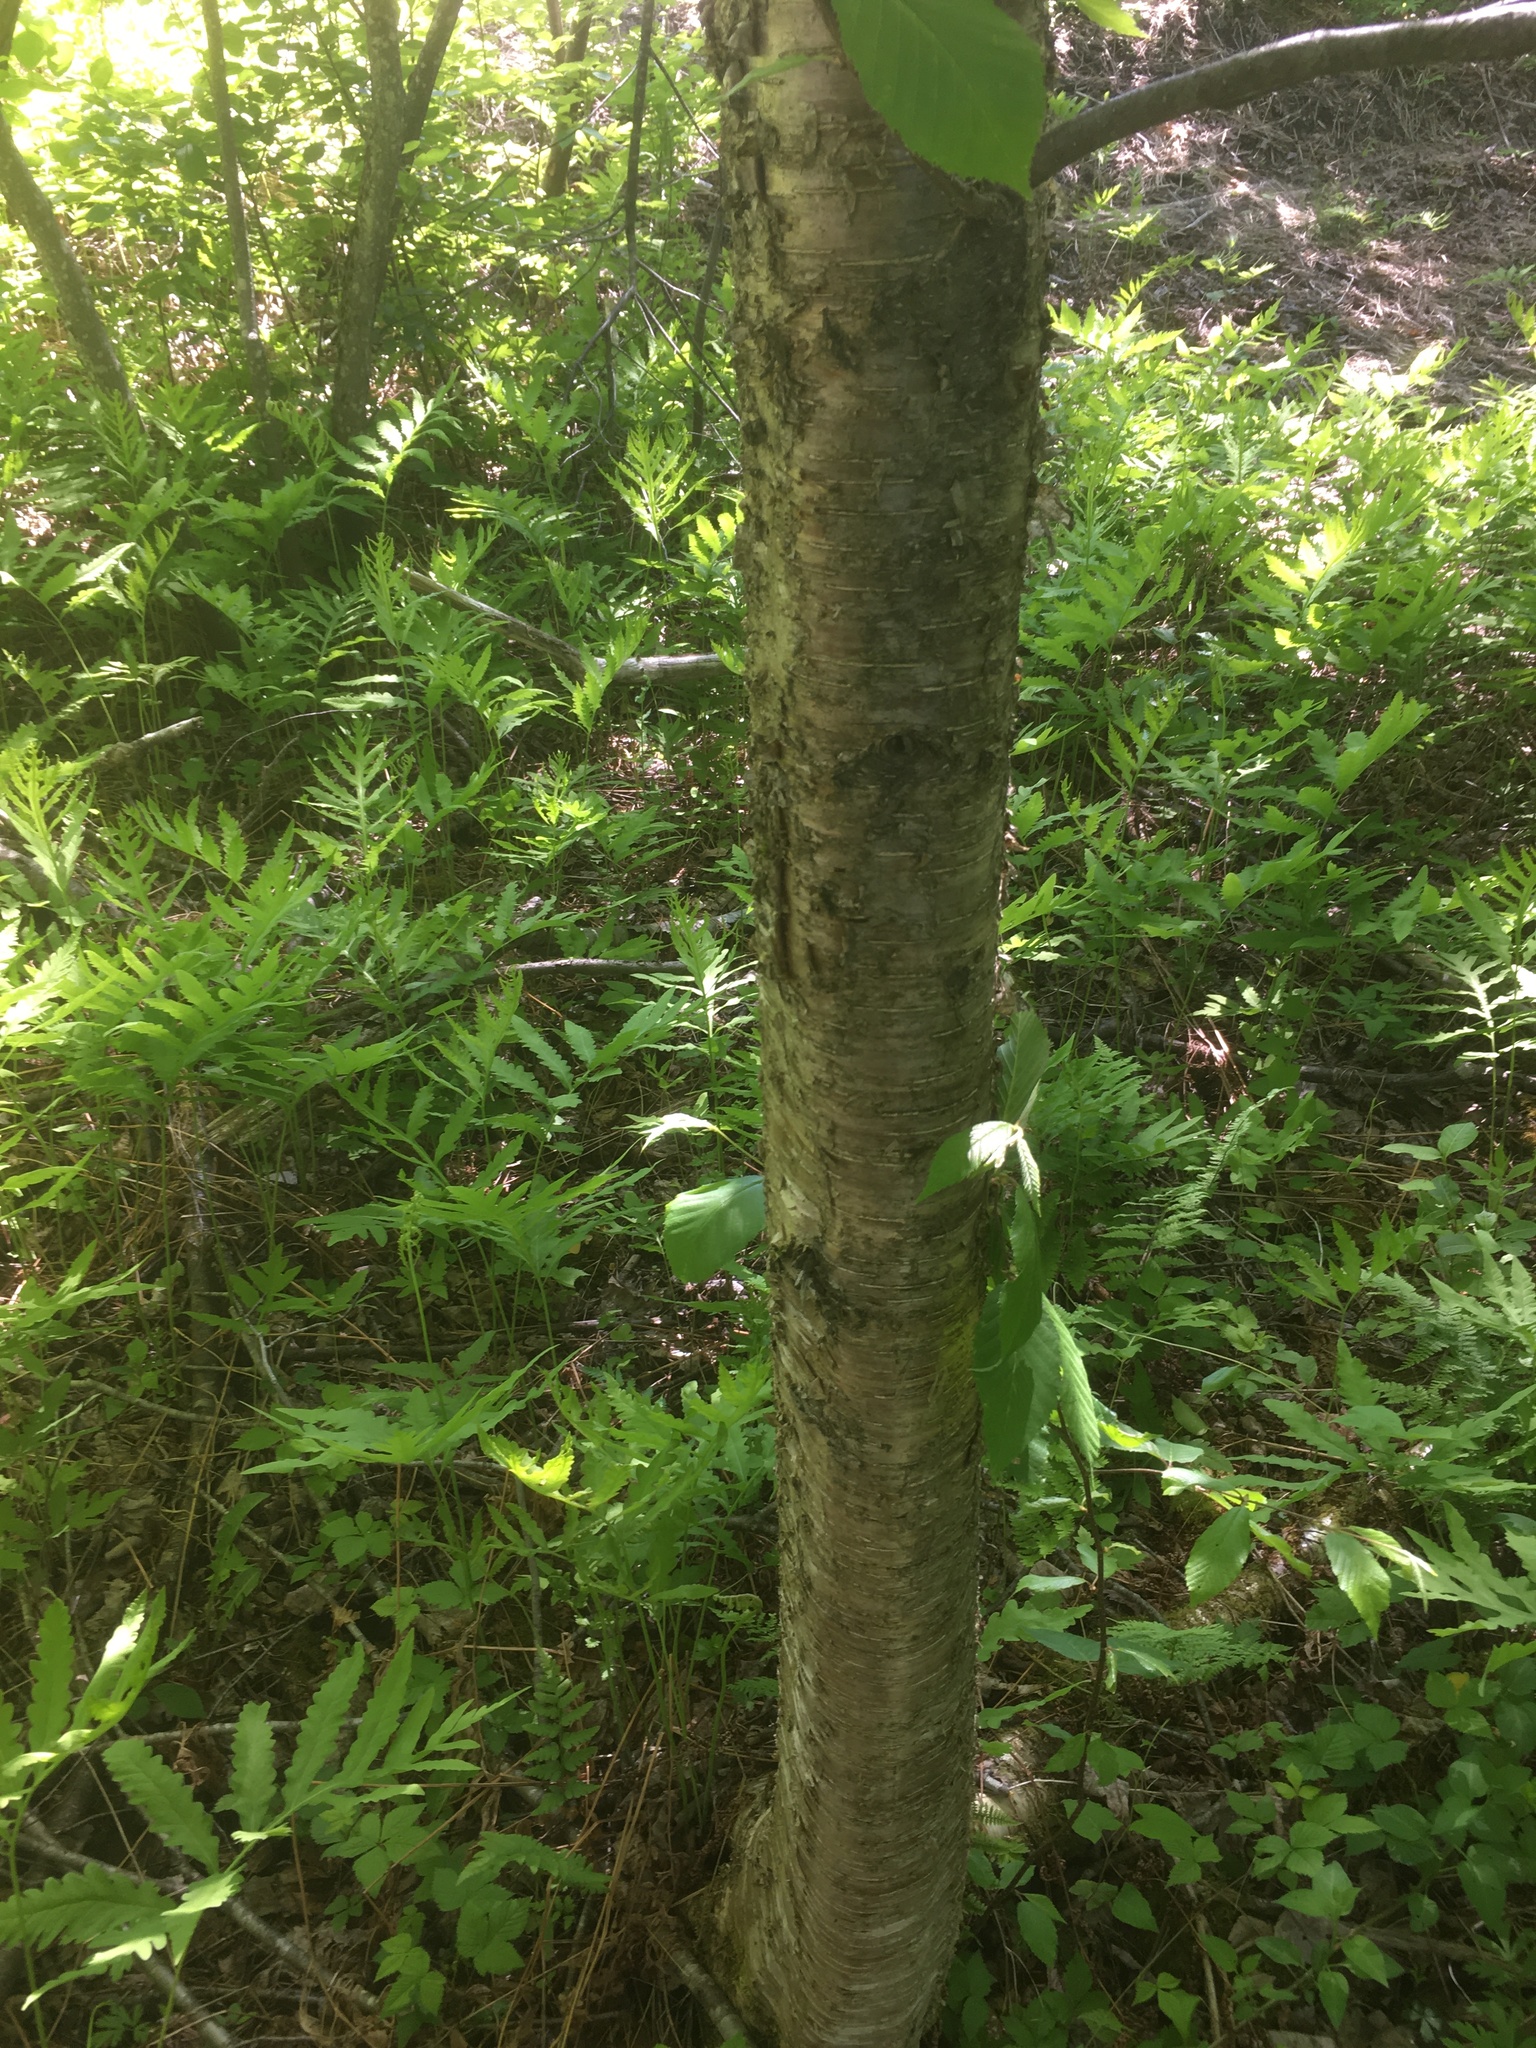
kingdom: Plantae
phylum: Tracheophyta
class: Magnoliopsida
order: Fagales
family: Betulaceae
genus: Betula
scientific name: Betula alleghaniensis
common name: Yellow birch
